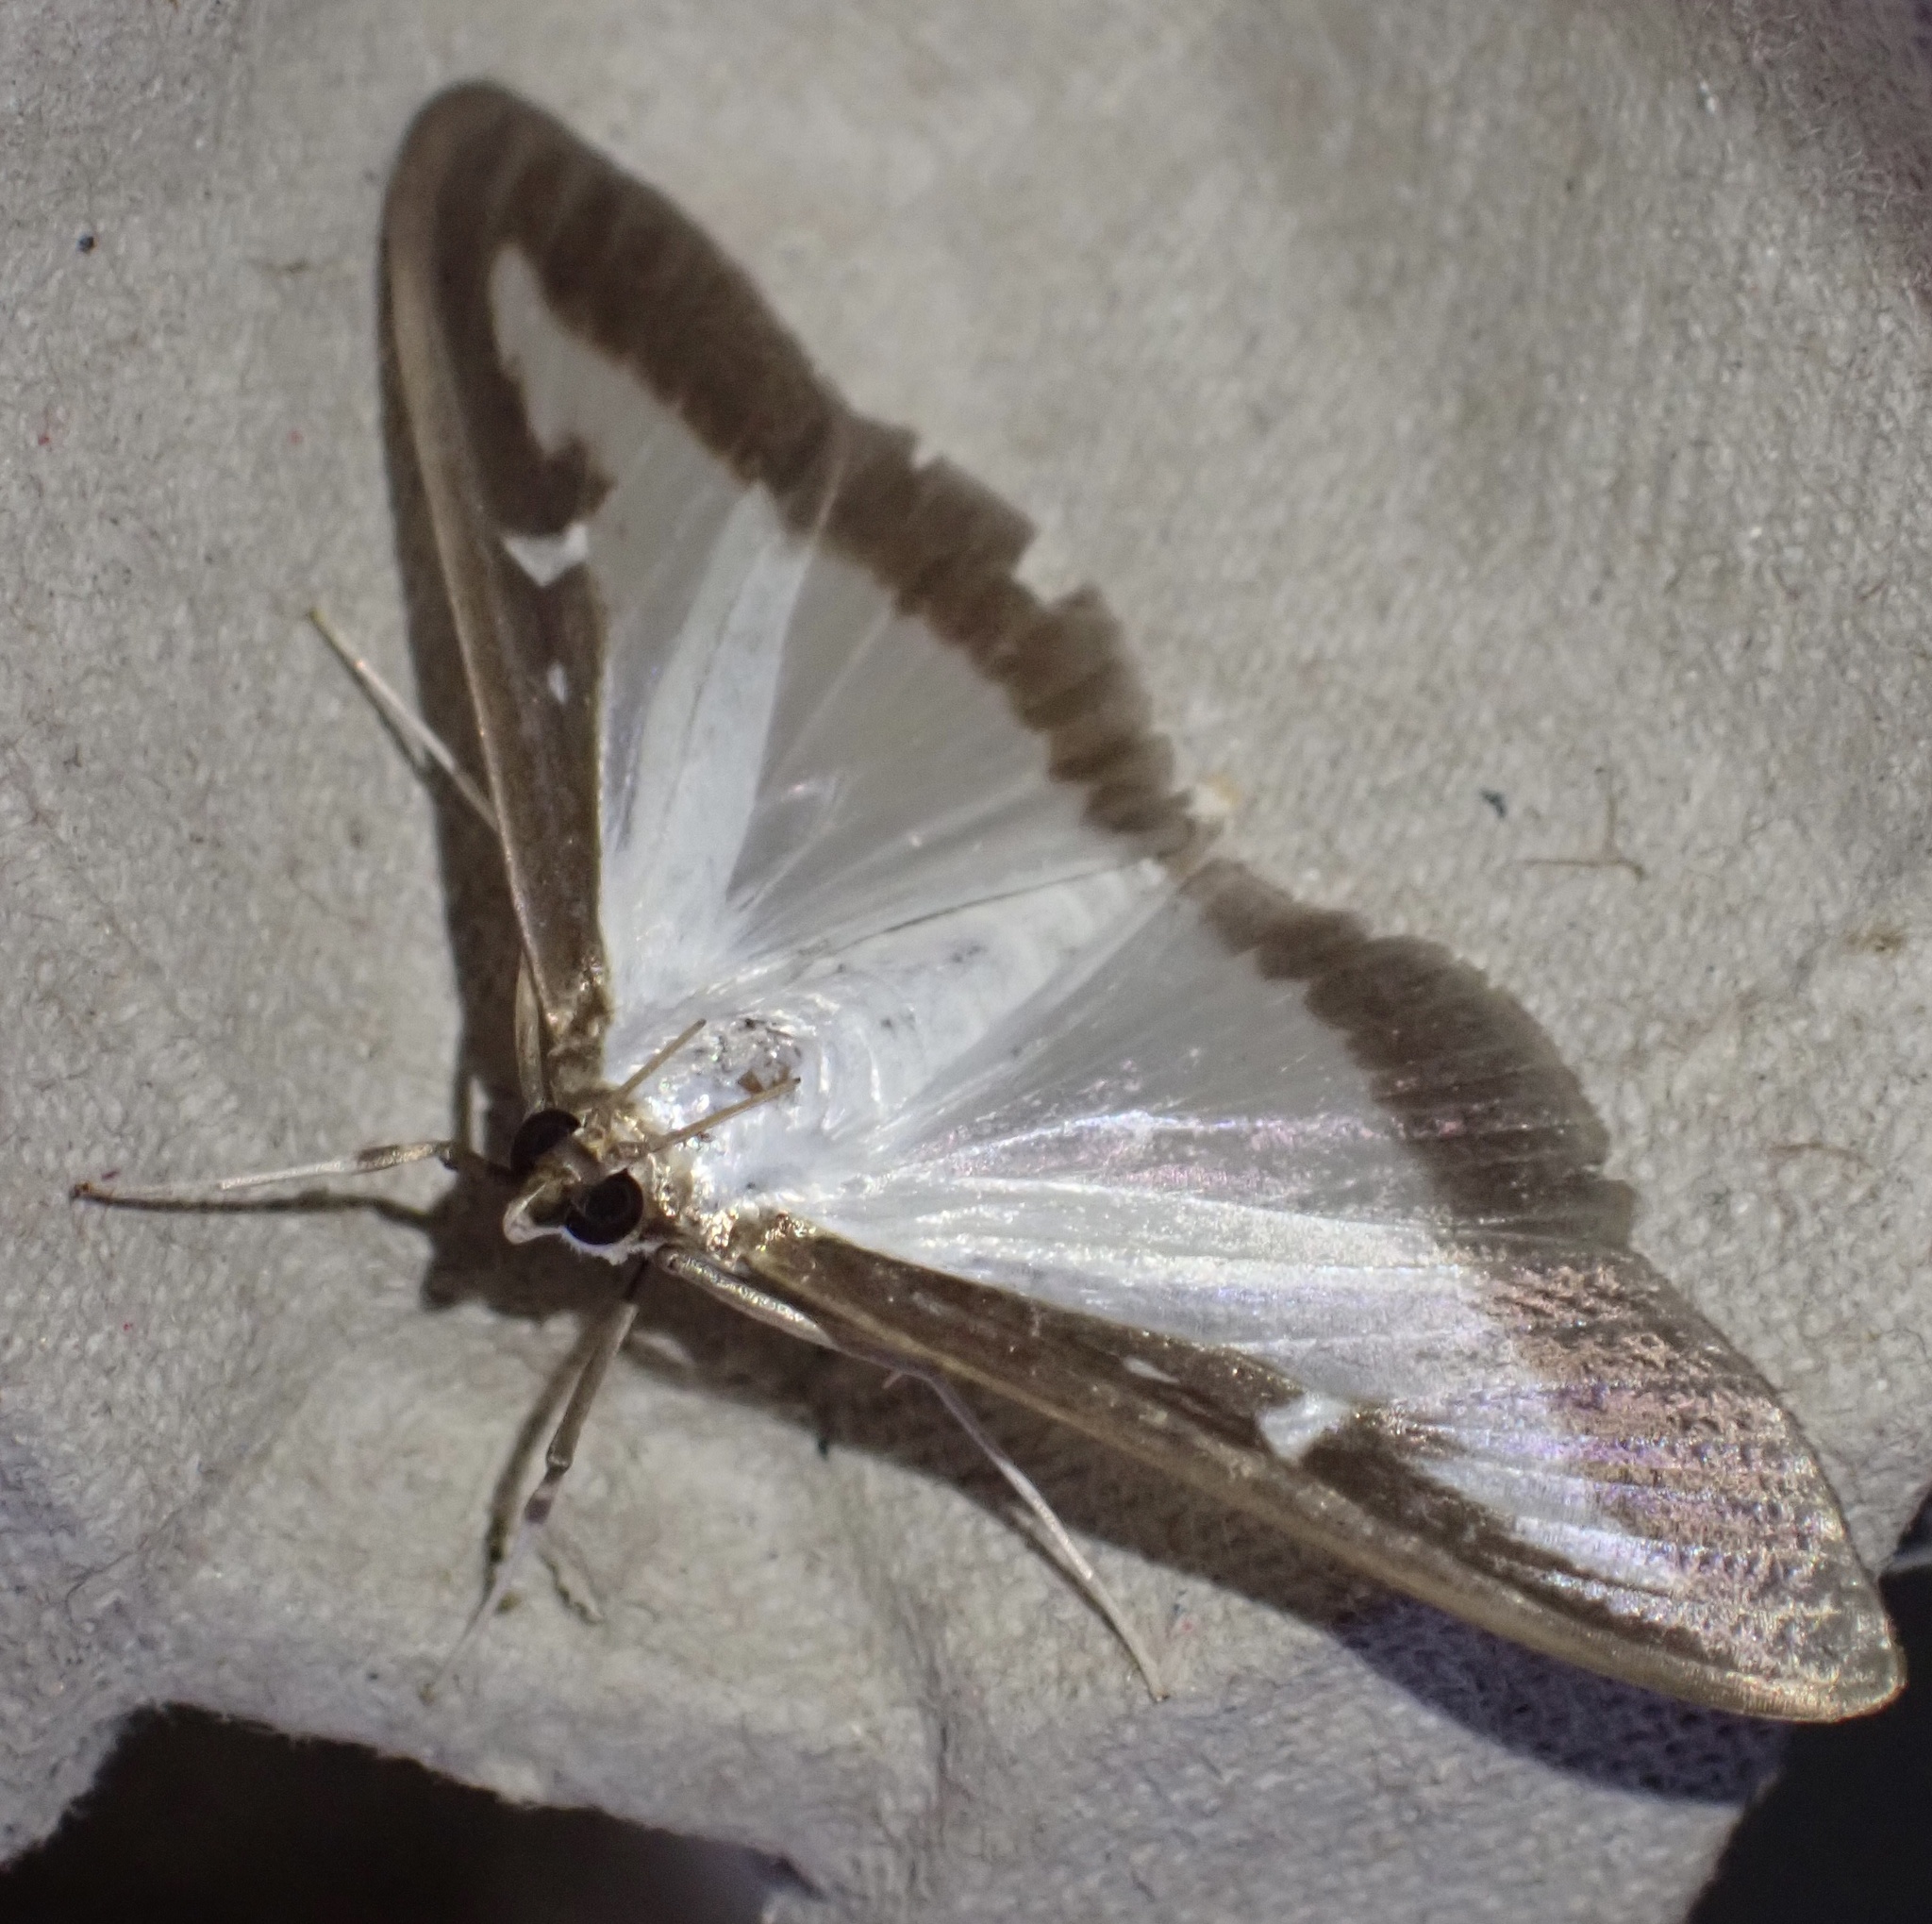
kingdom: Animalia
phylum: Arthropoda
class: Insecta
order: Lepidoptera
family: Crambidae
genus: Cydalima
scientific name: Cydalima perspectalis
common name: Box tree moth
